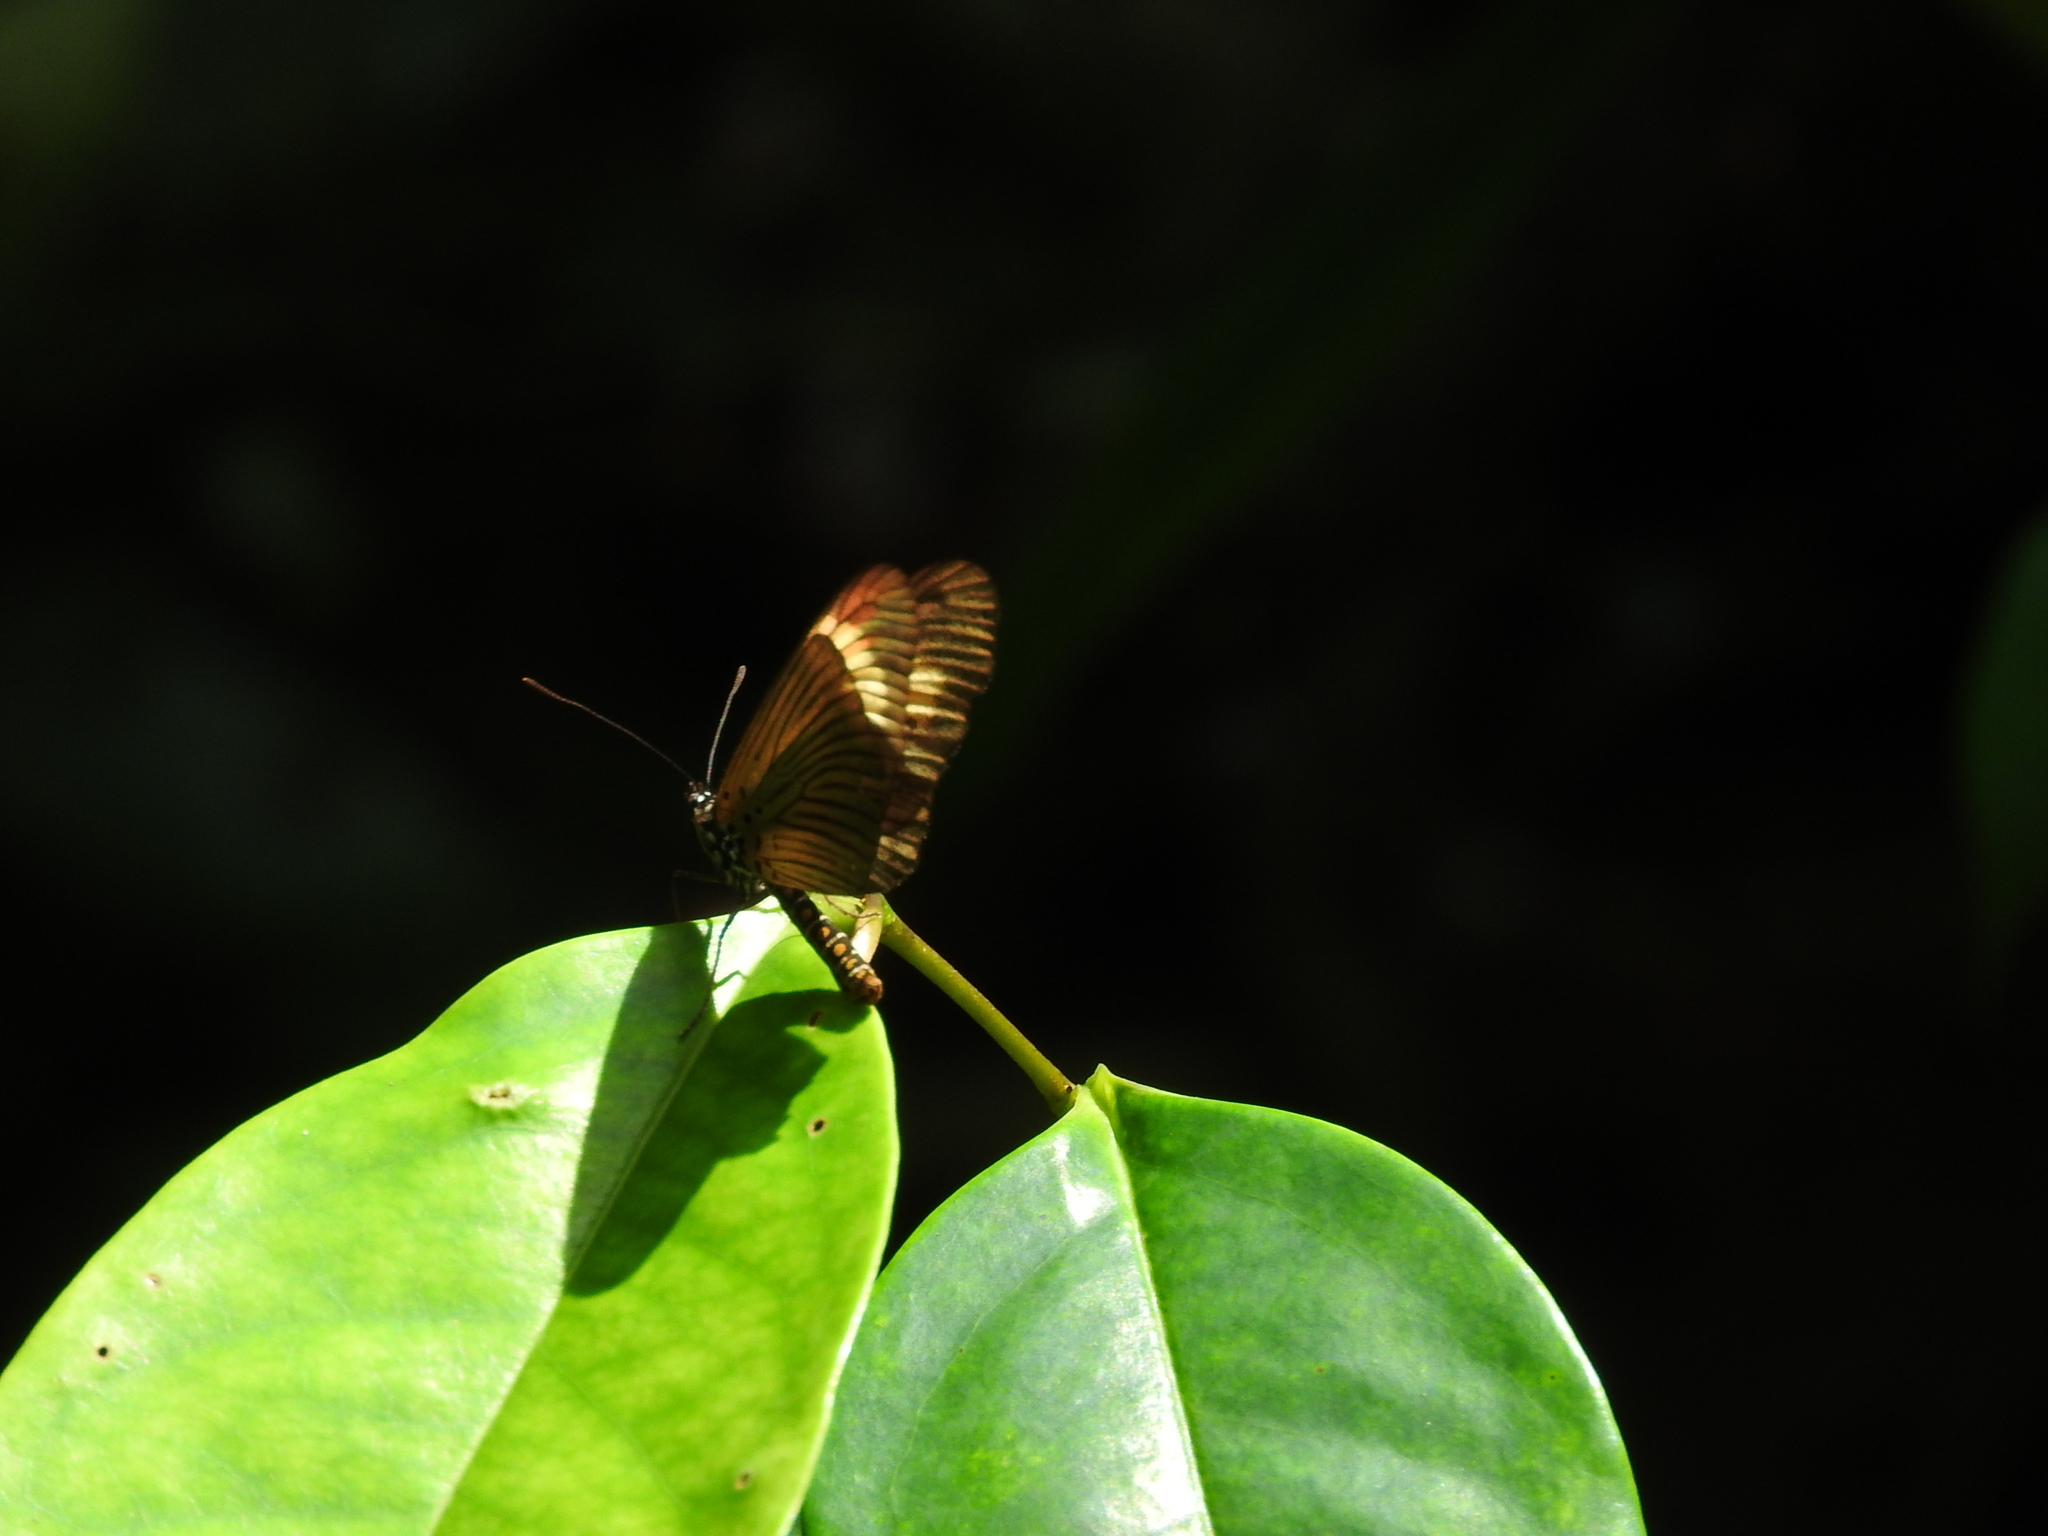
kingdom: Animalia
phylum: Arthropoda
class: Insecta
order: Lepidoptera
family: Nymphalidae
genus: Acraea
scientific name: Acraea
